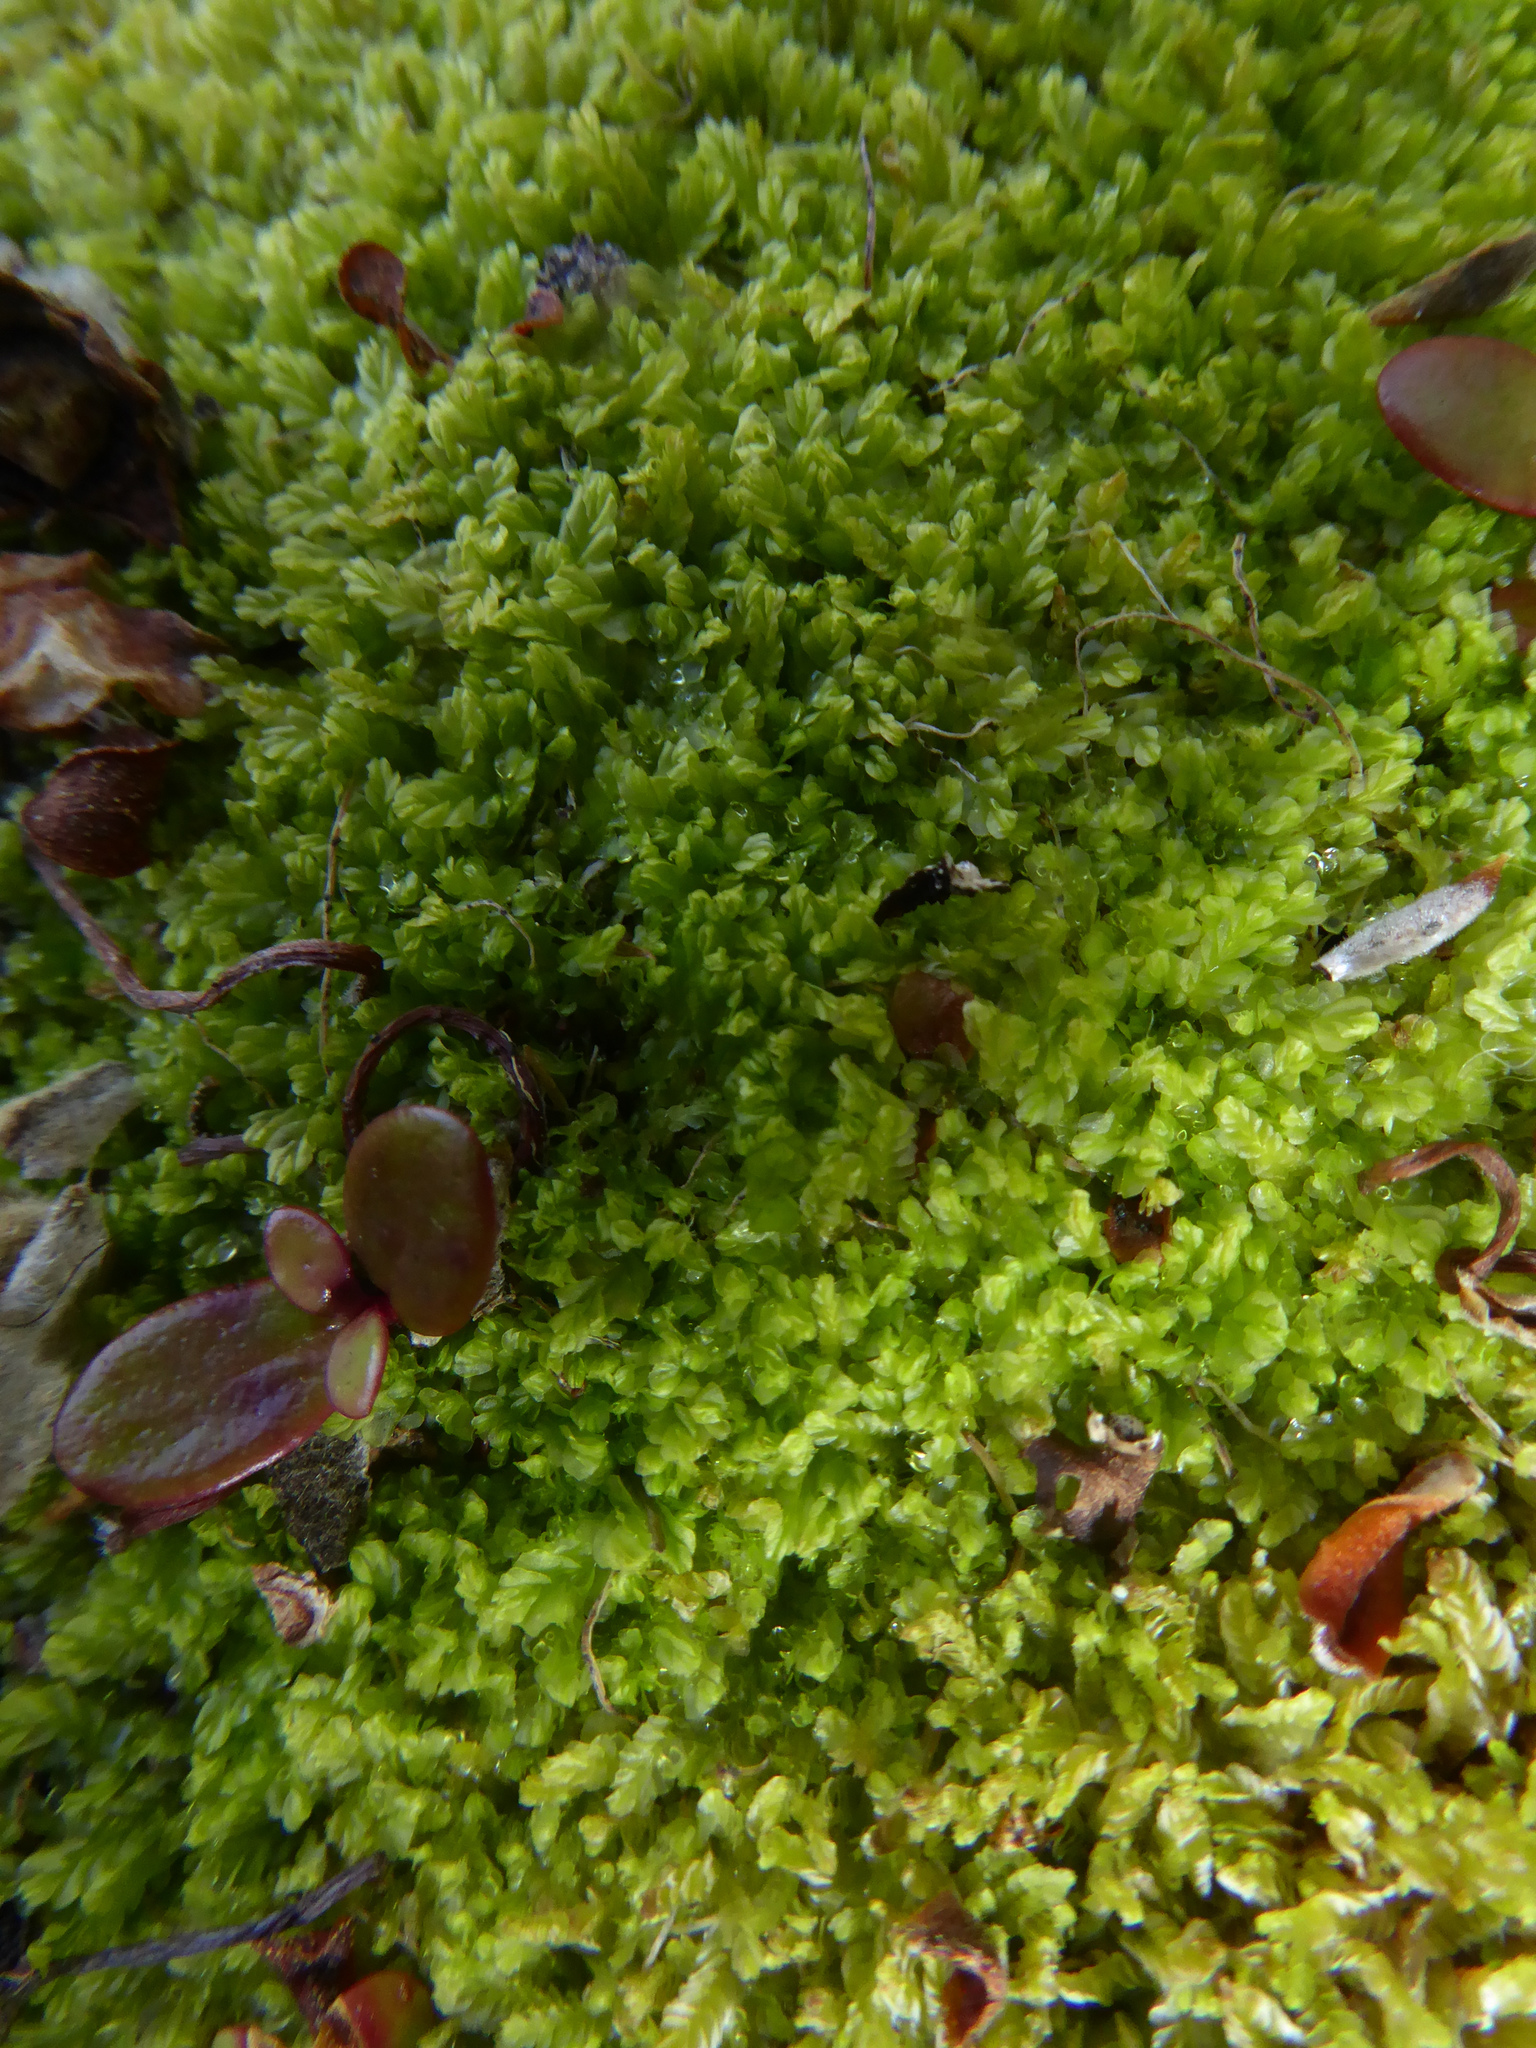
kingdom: Plantae
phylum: Marchantiophyta
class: Jungermanniopsida
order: Jungermanniales
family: Lophocoleaceae
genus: Lophocolea
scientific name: Lophocolea semiteres
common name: Southern crestwort
